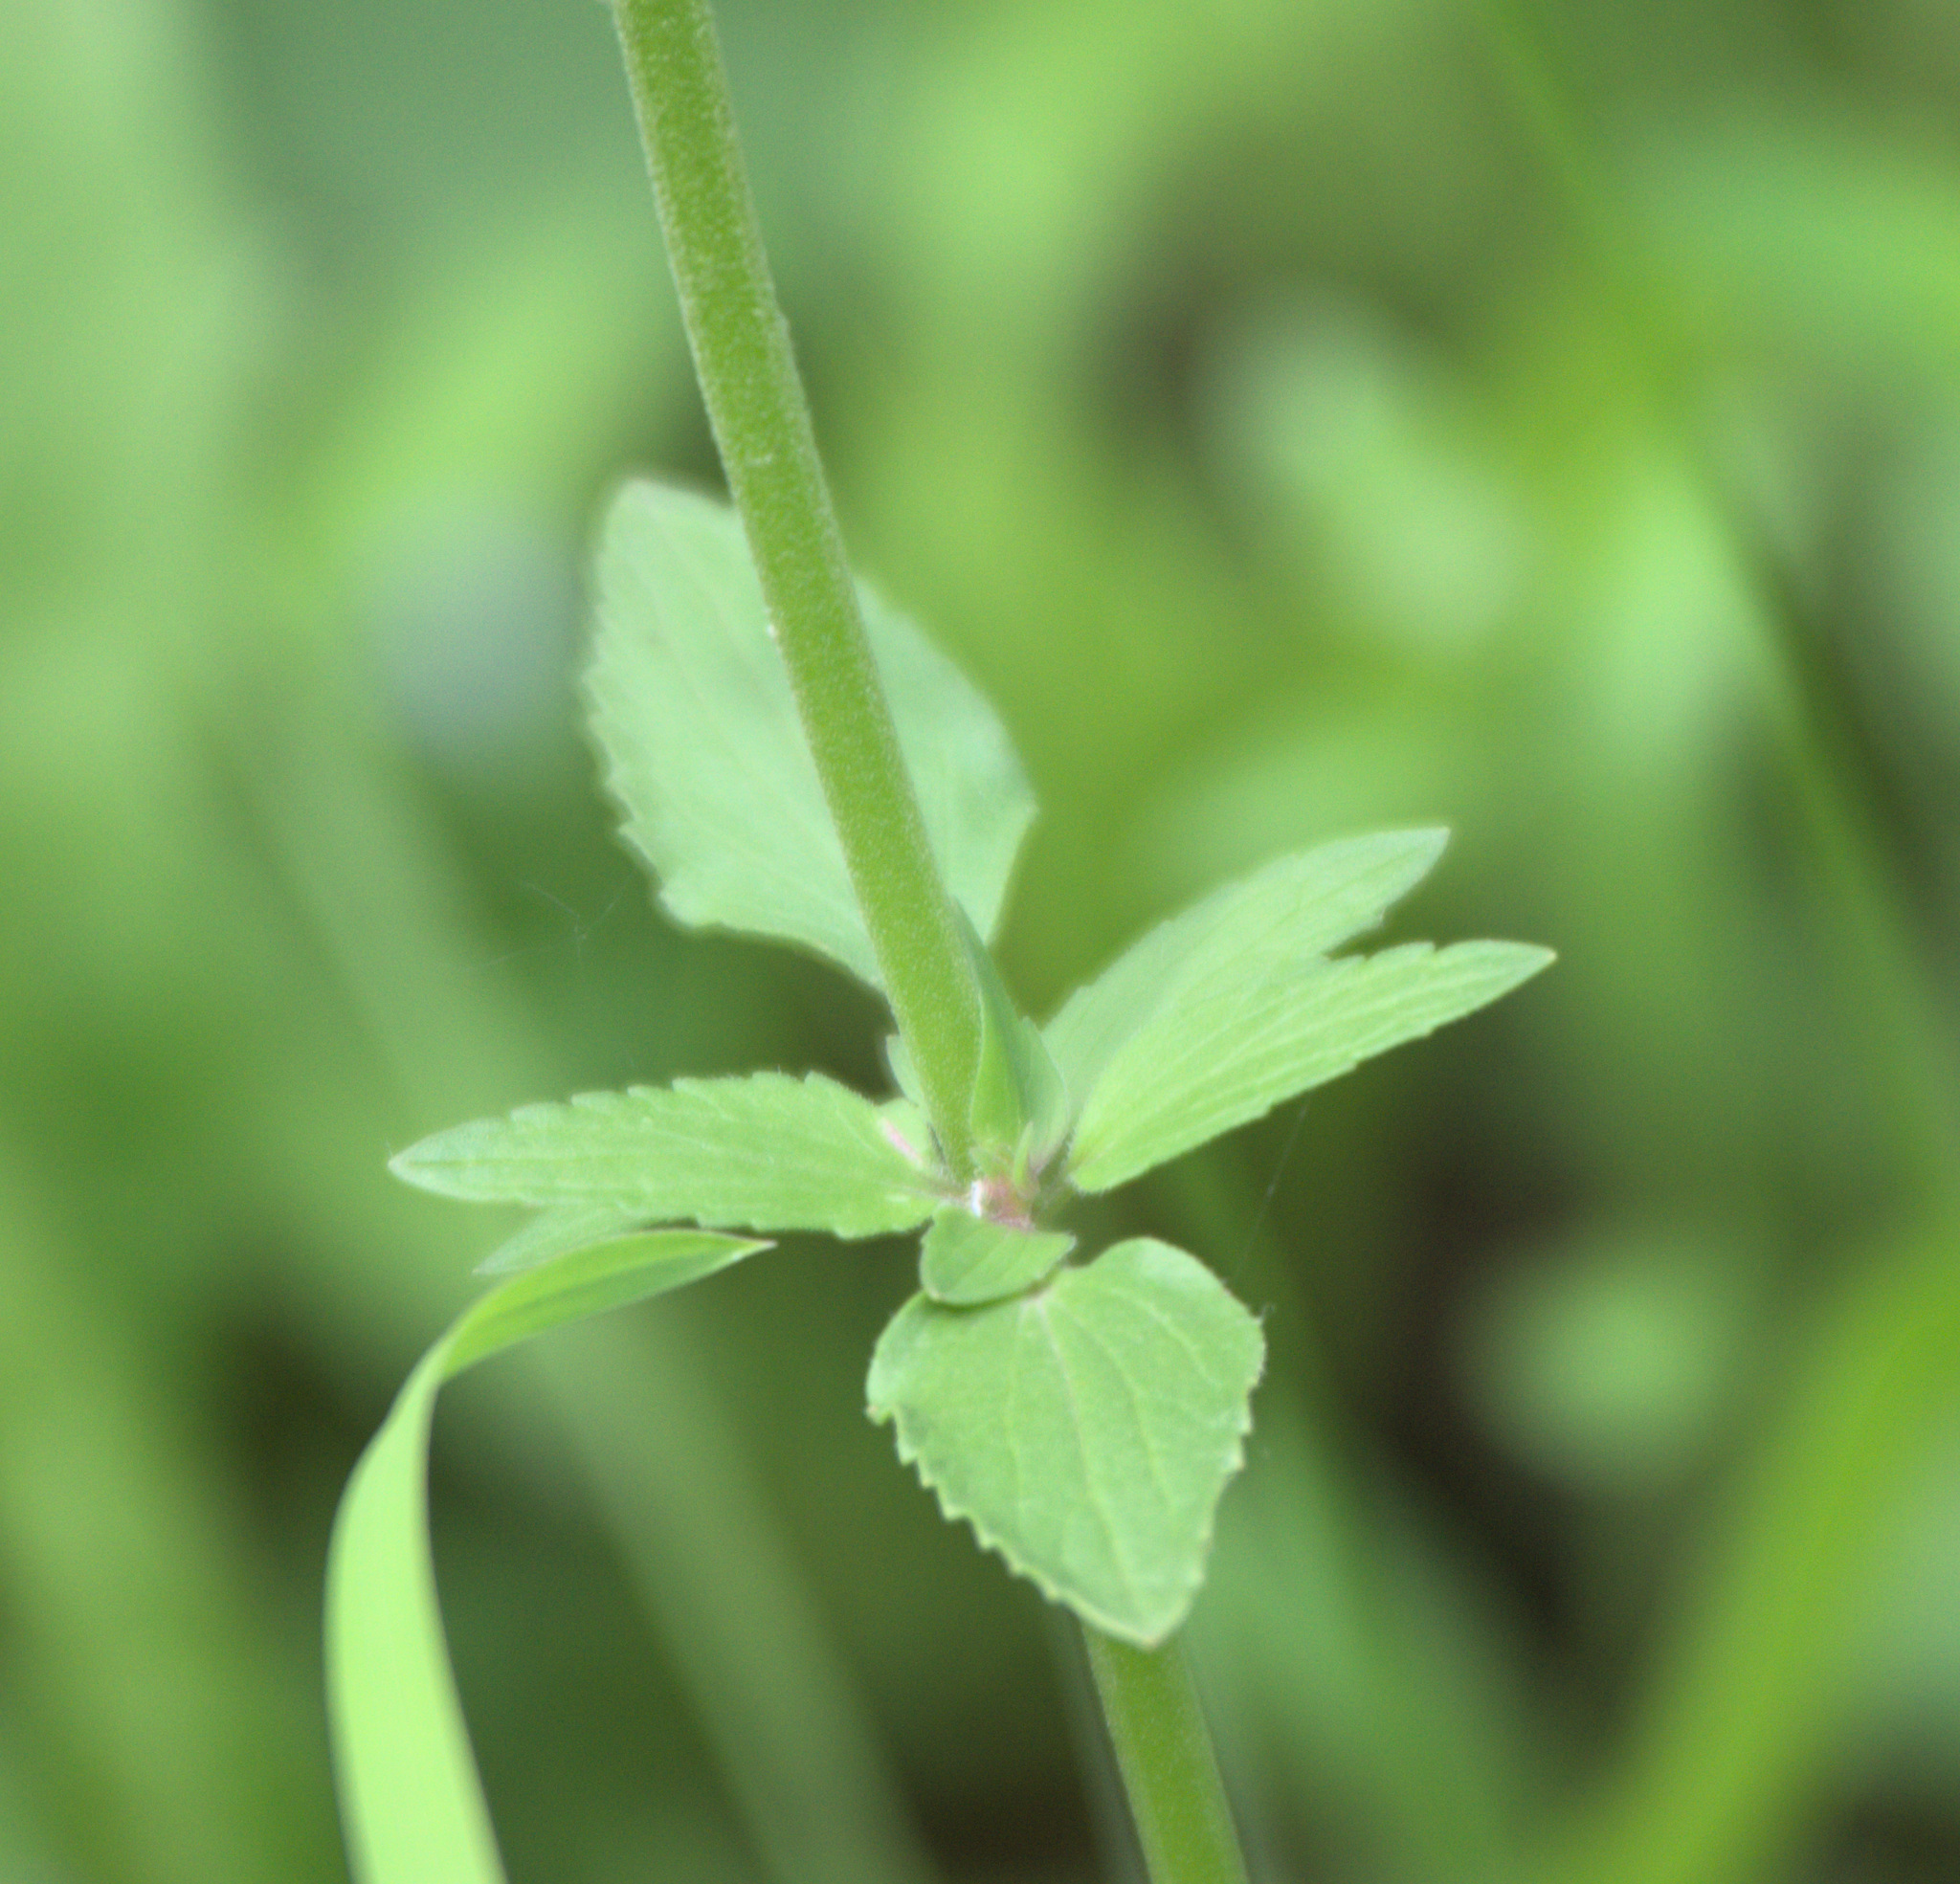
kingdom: Plantae
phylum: Tracheophyta
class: Magnoliopsida
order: Lamiales
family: Lamiaceae
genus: Dracocephalum
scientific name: Dracocephalum nutans
